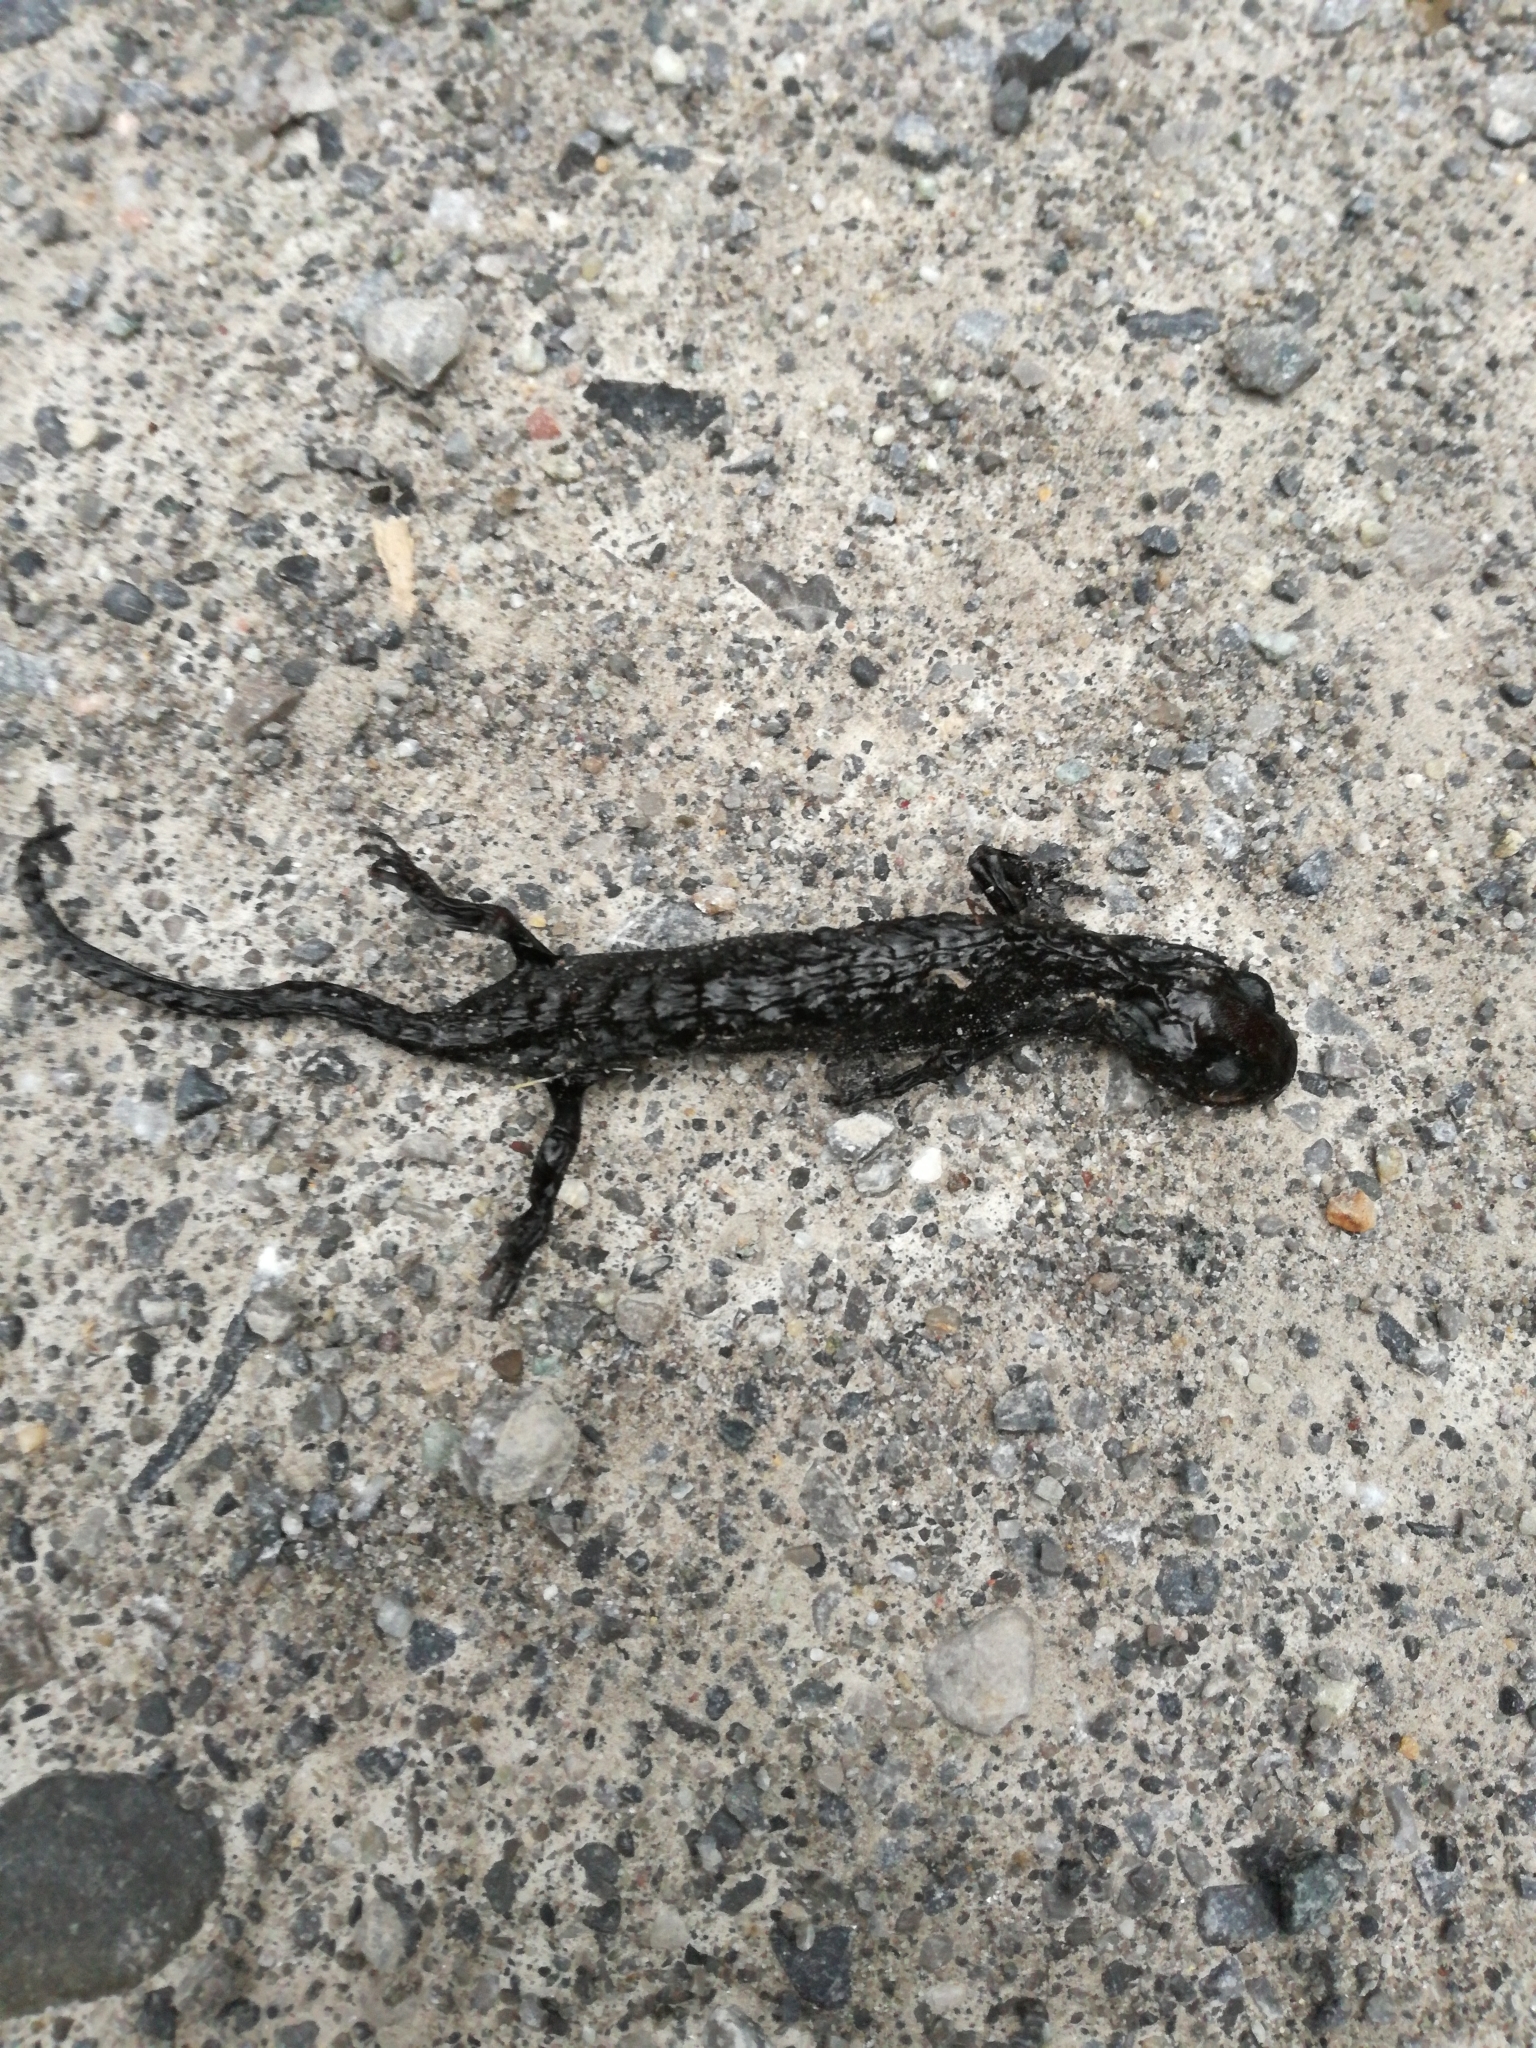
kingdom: Animalia
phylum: Chordata
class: Amphibia
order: Caudata
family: Salamandridae
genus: Salamandra
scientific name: Salamandra atra
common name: Alpine salamander
